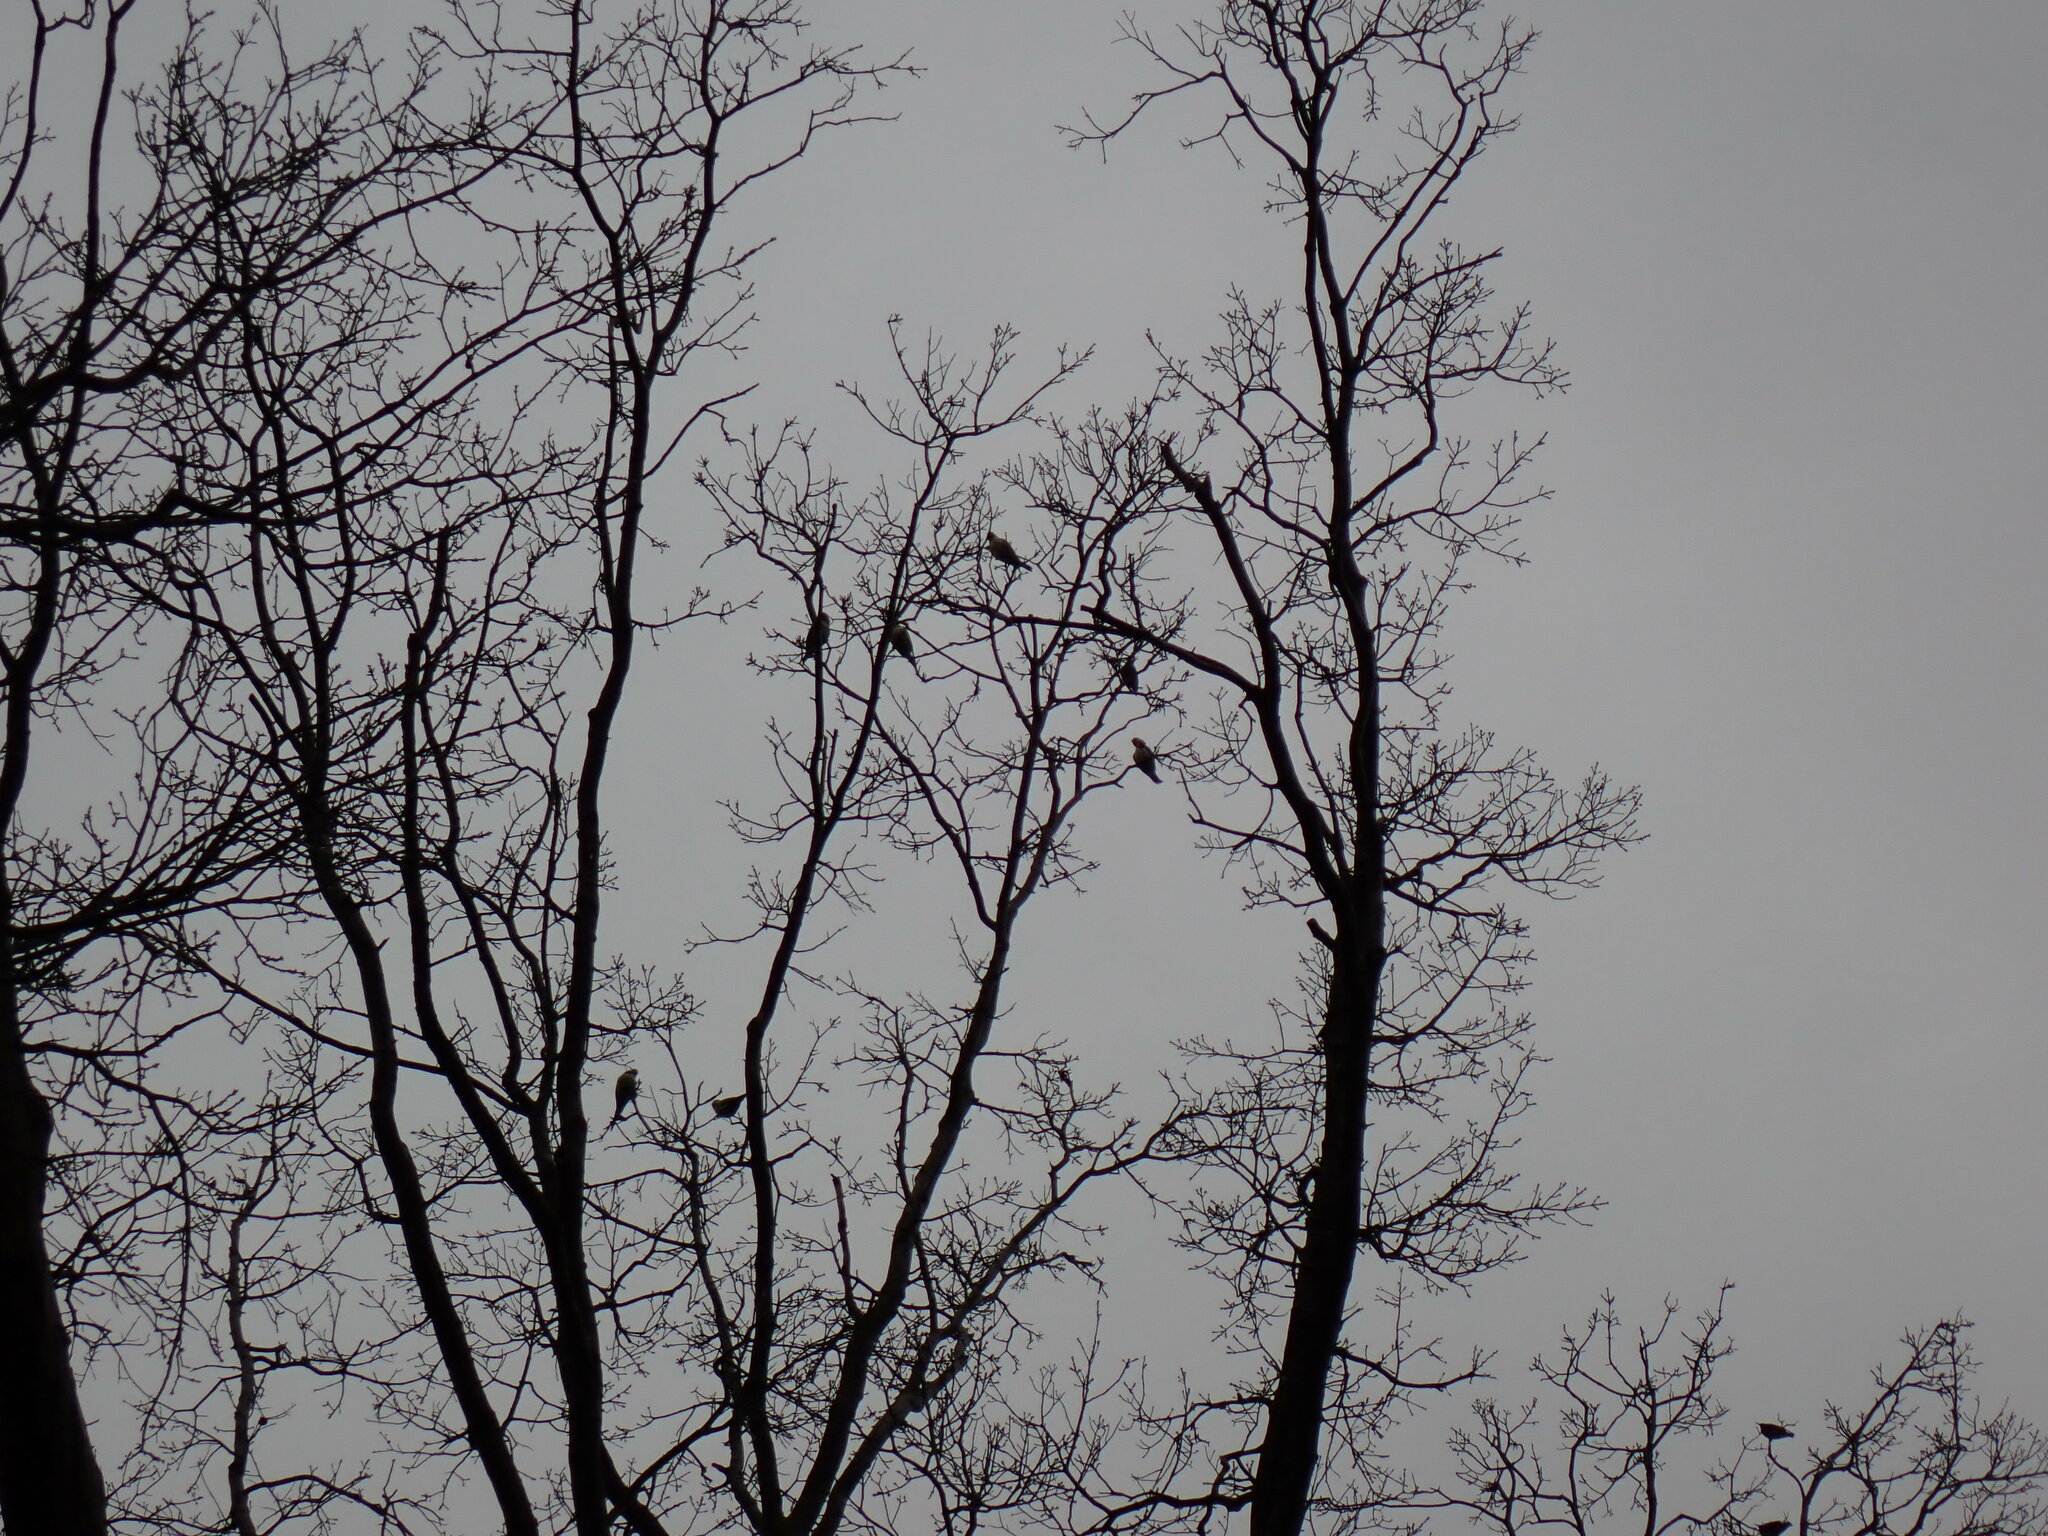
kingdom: Animalia
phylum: Chordata
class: Aves
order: Psittaciformes
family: Psittacidae
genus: Myiopsitta
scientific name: Myiopsitta monachus
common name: Monk parakeet
